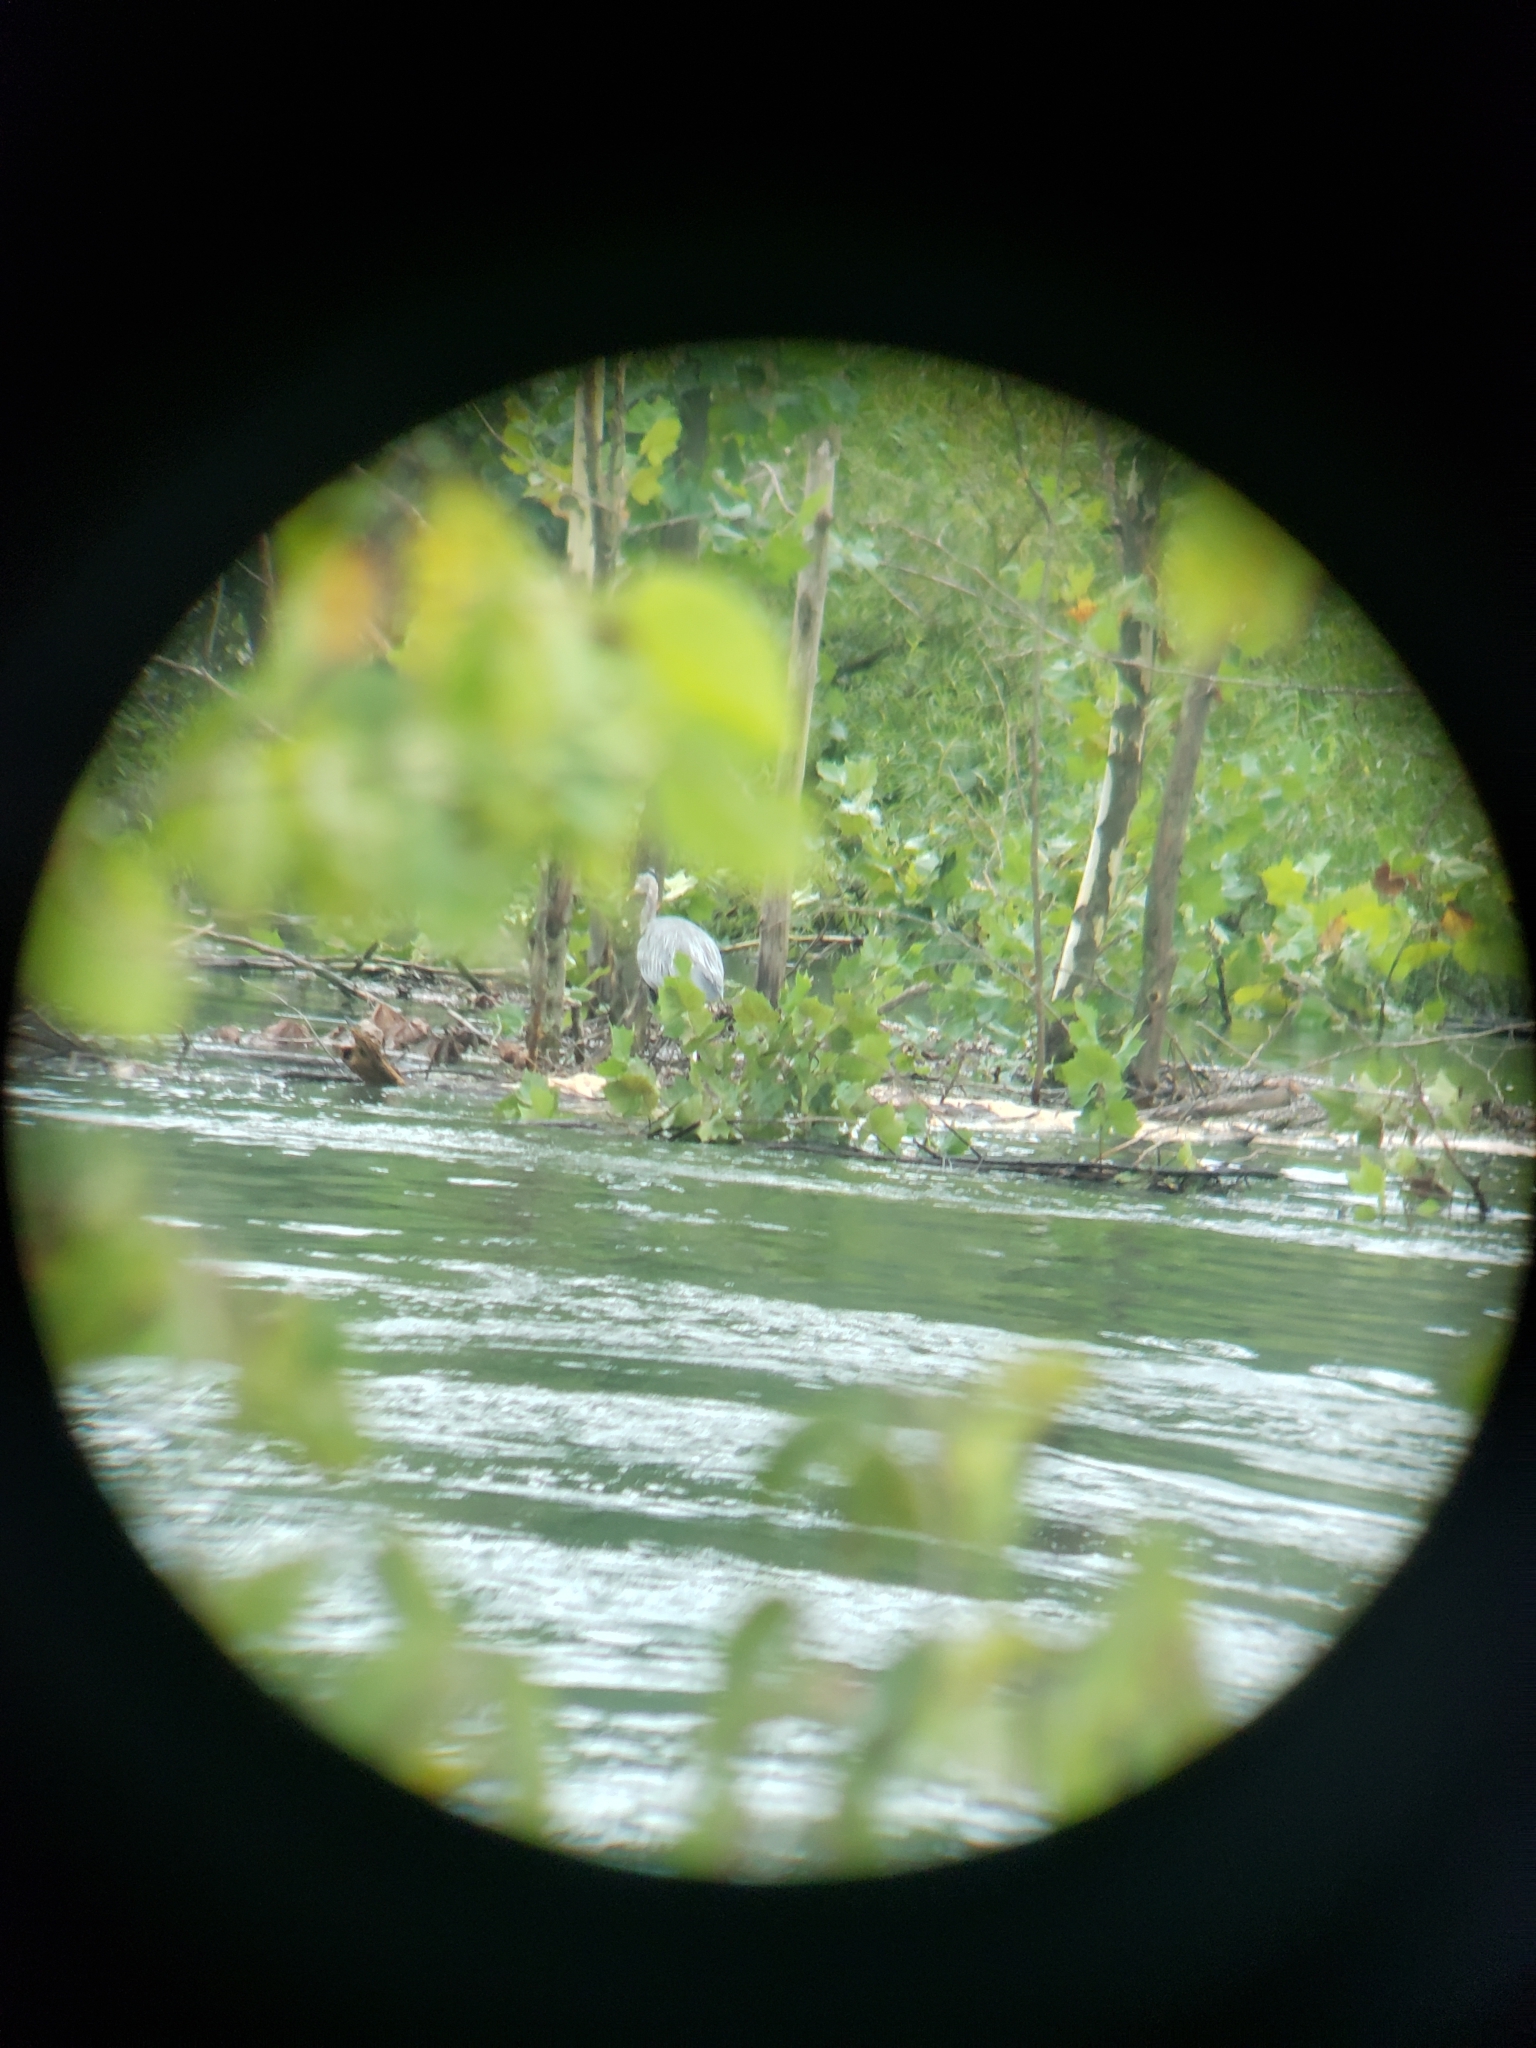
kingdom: Animalia
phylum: Chordata
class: Aves
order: Pelecaniformes
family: Ardeidae
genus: Ardea
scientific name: Ardea herodias
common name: Great blue heron
